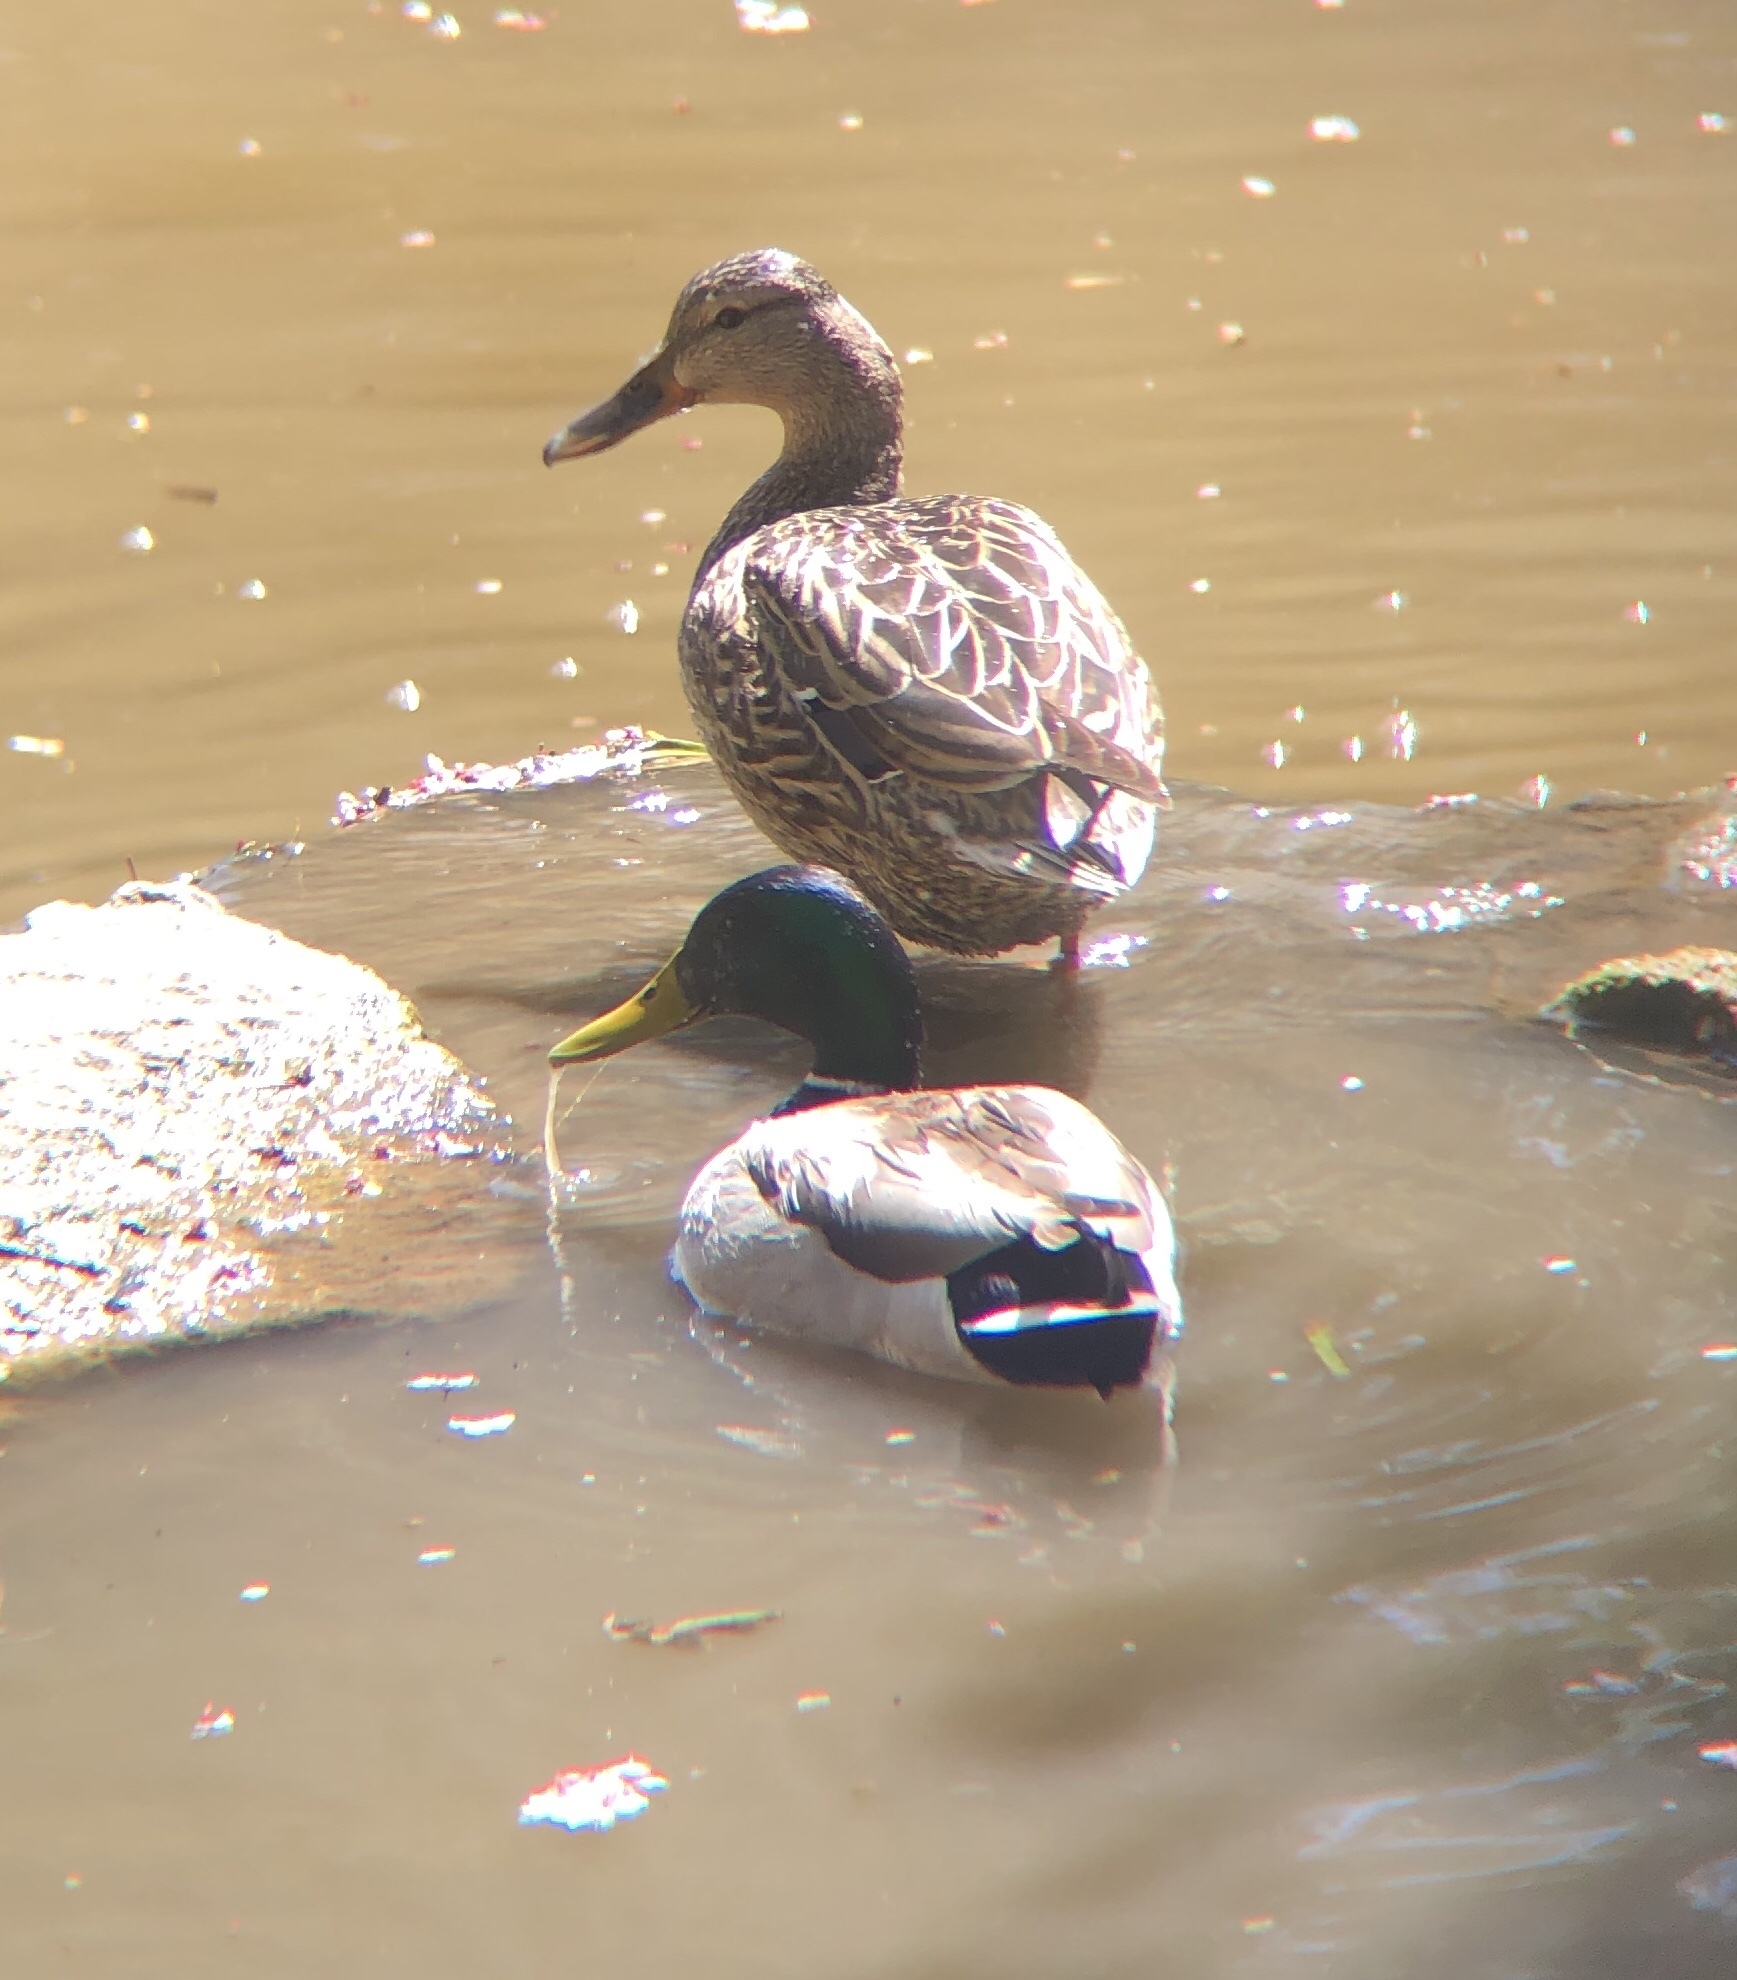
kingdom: Animalia
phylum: Chordata
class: Aves
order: Anseriformes
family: Anatidae
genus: Anas
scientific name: Anas platyrhynchos
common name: Mallard
